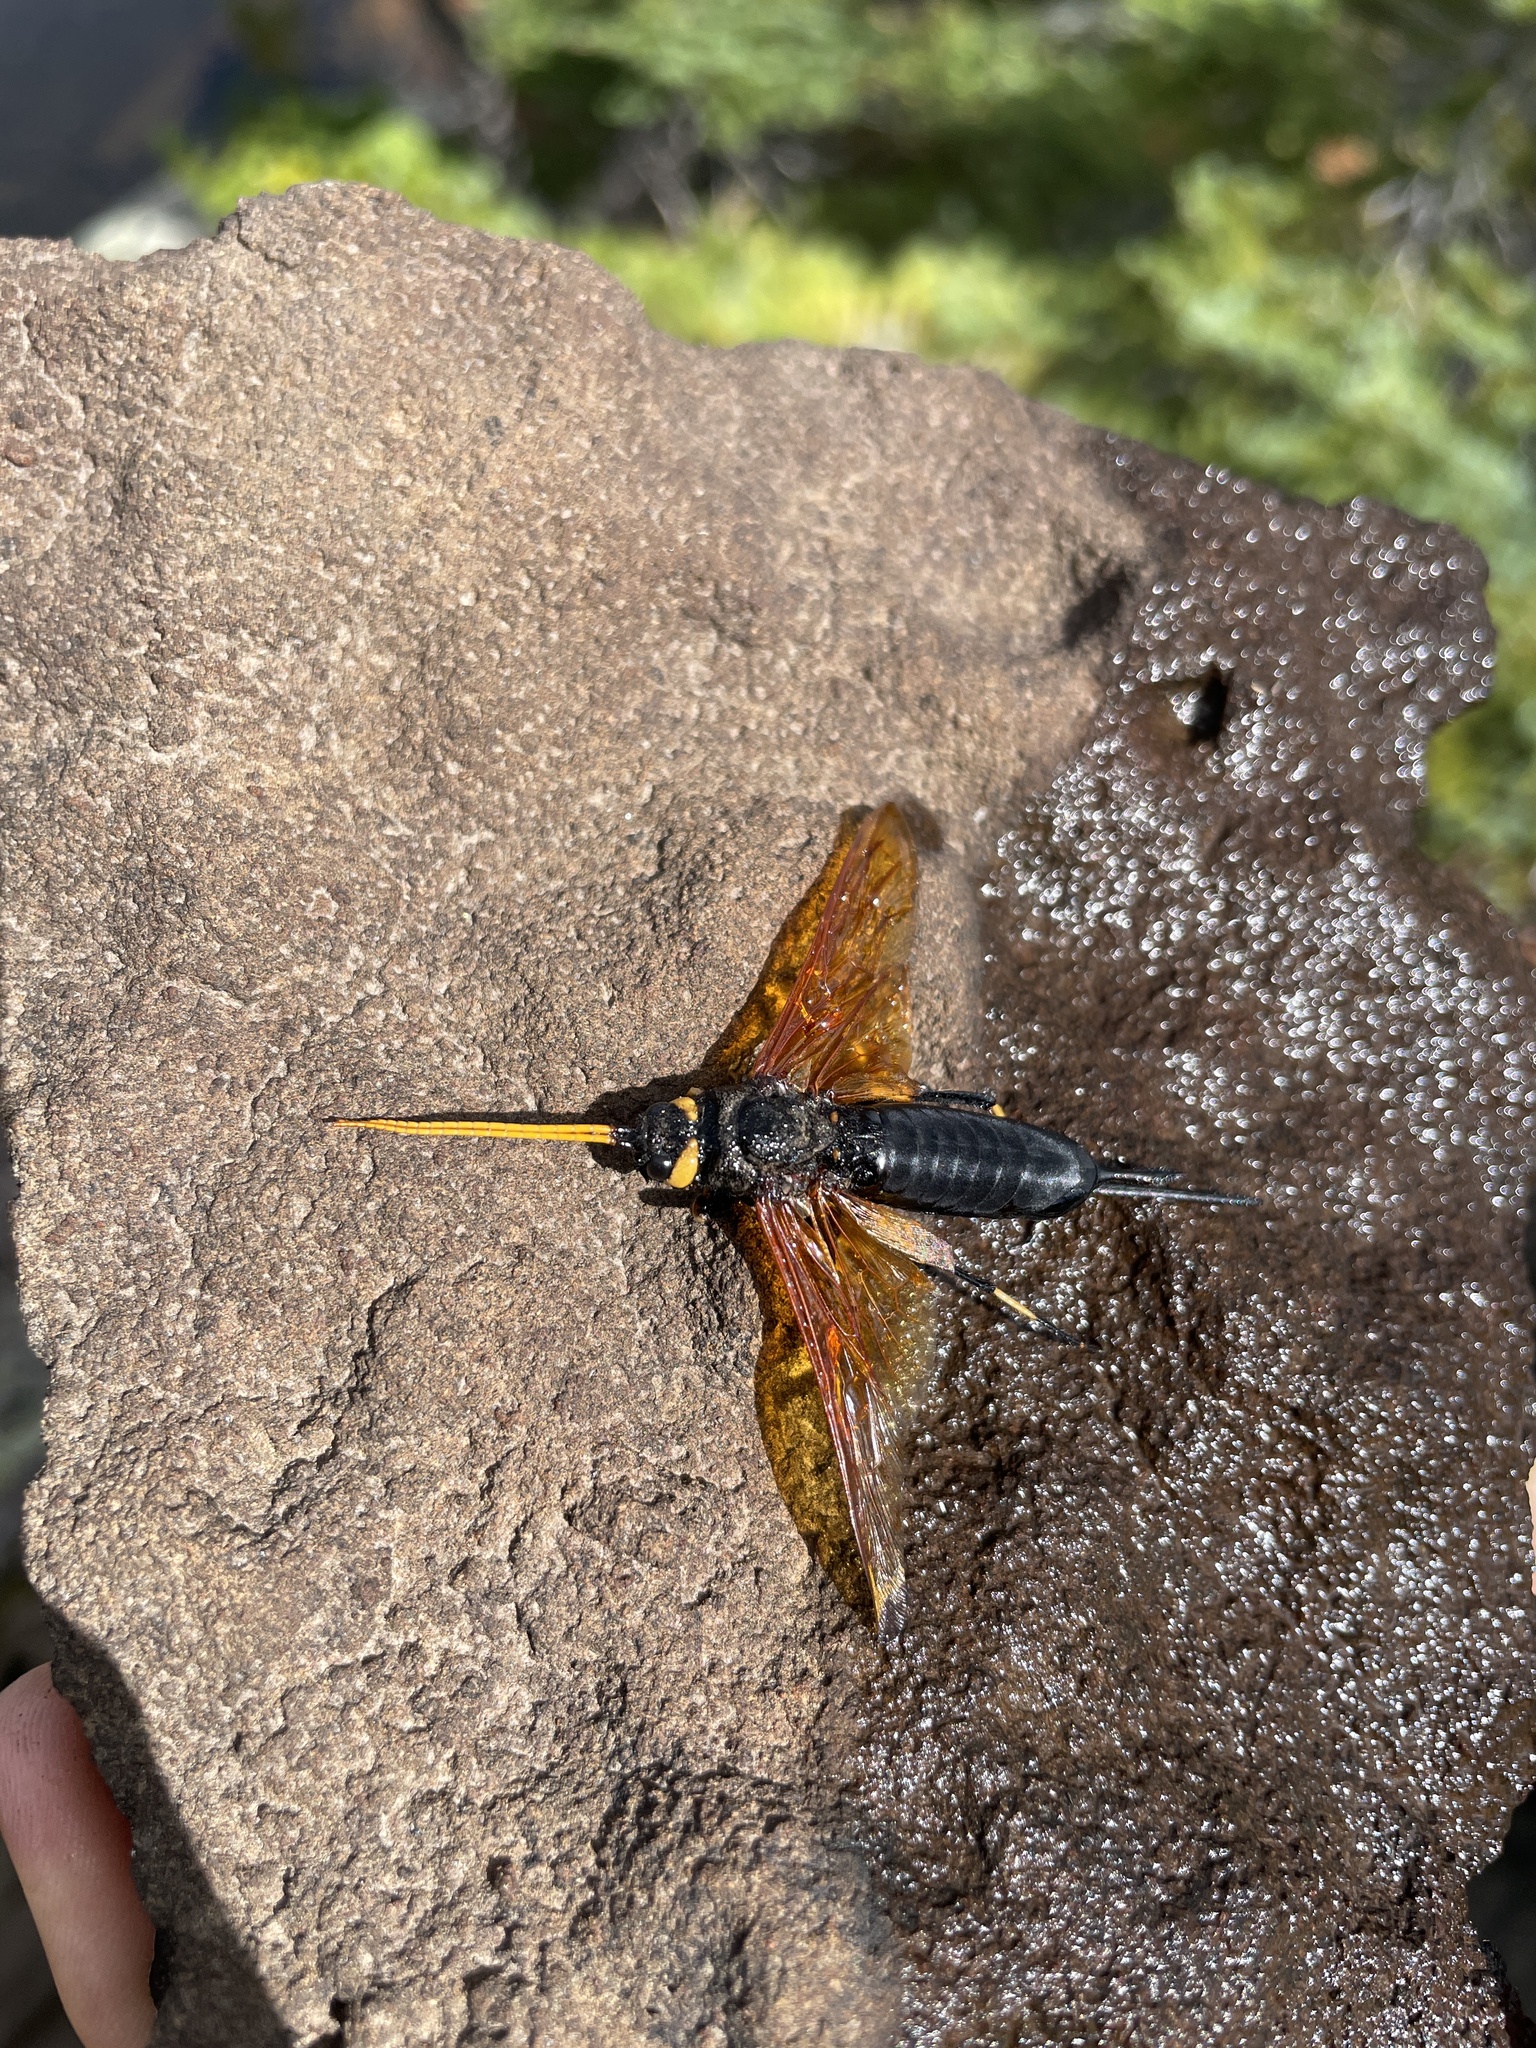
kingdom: Animalia
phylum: Arthropoda
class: Insecta
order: Hymenoptera
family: Siricidae
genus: Urocerus
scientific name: Urocerus californicus
